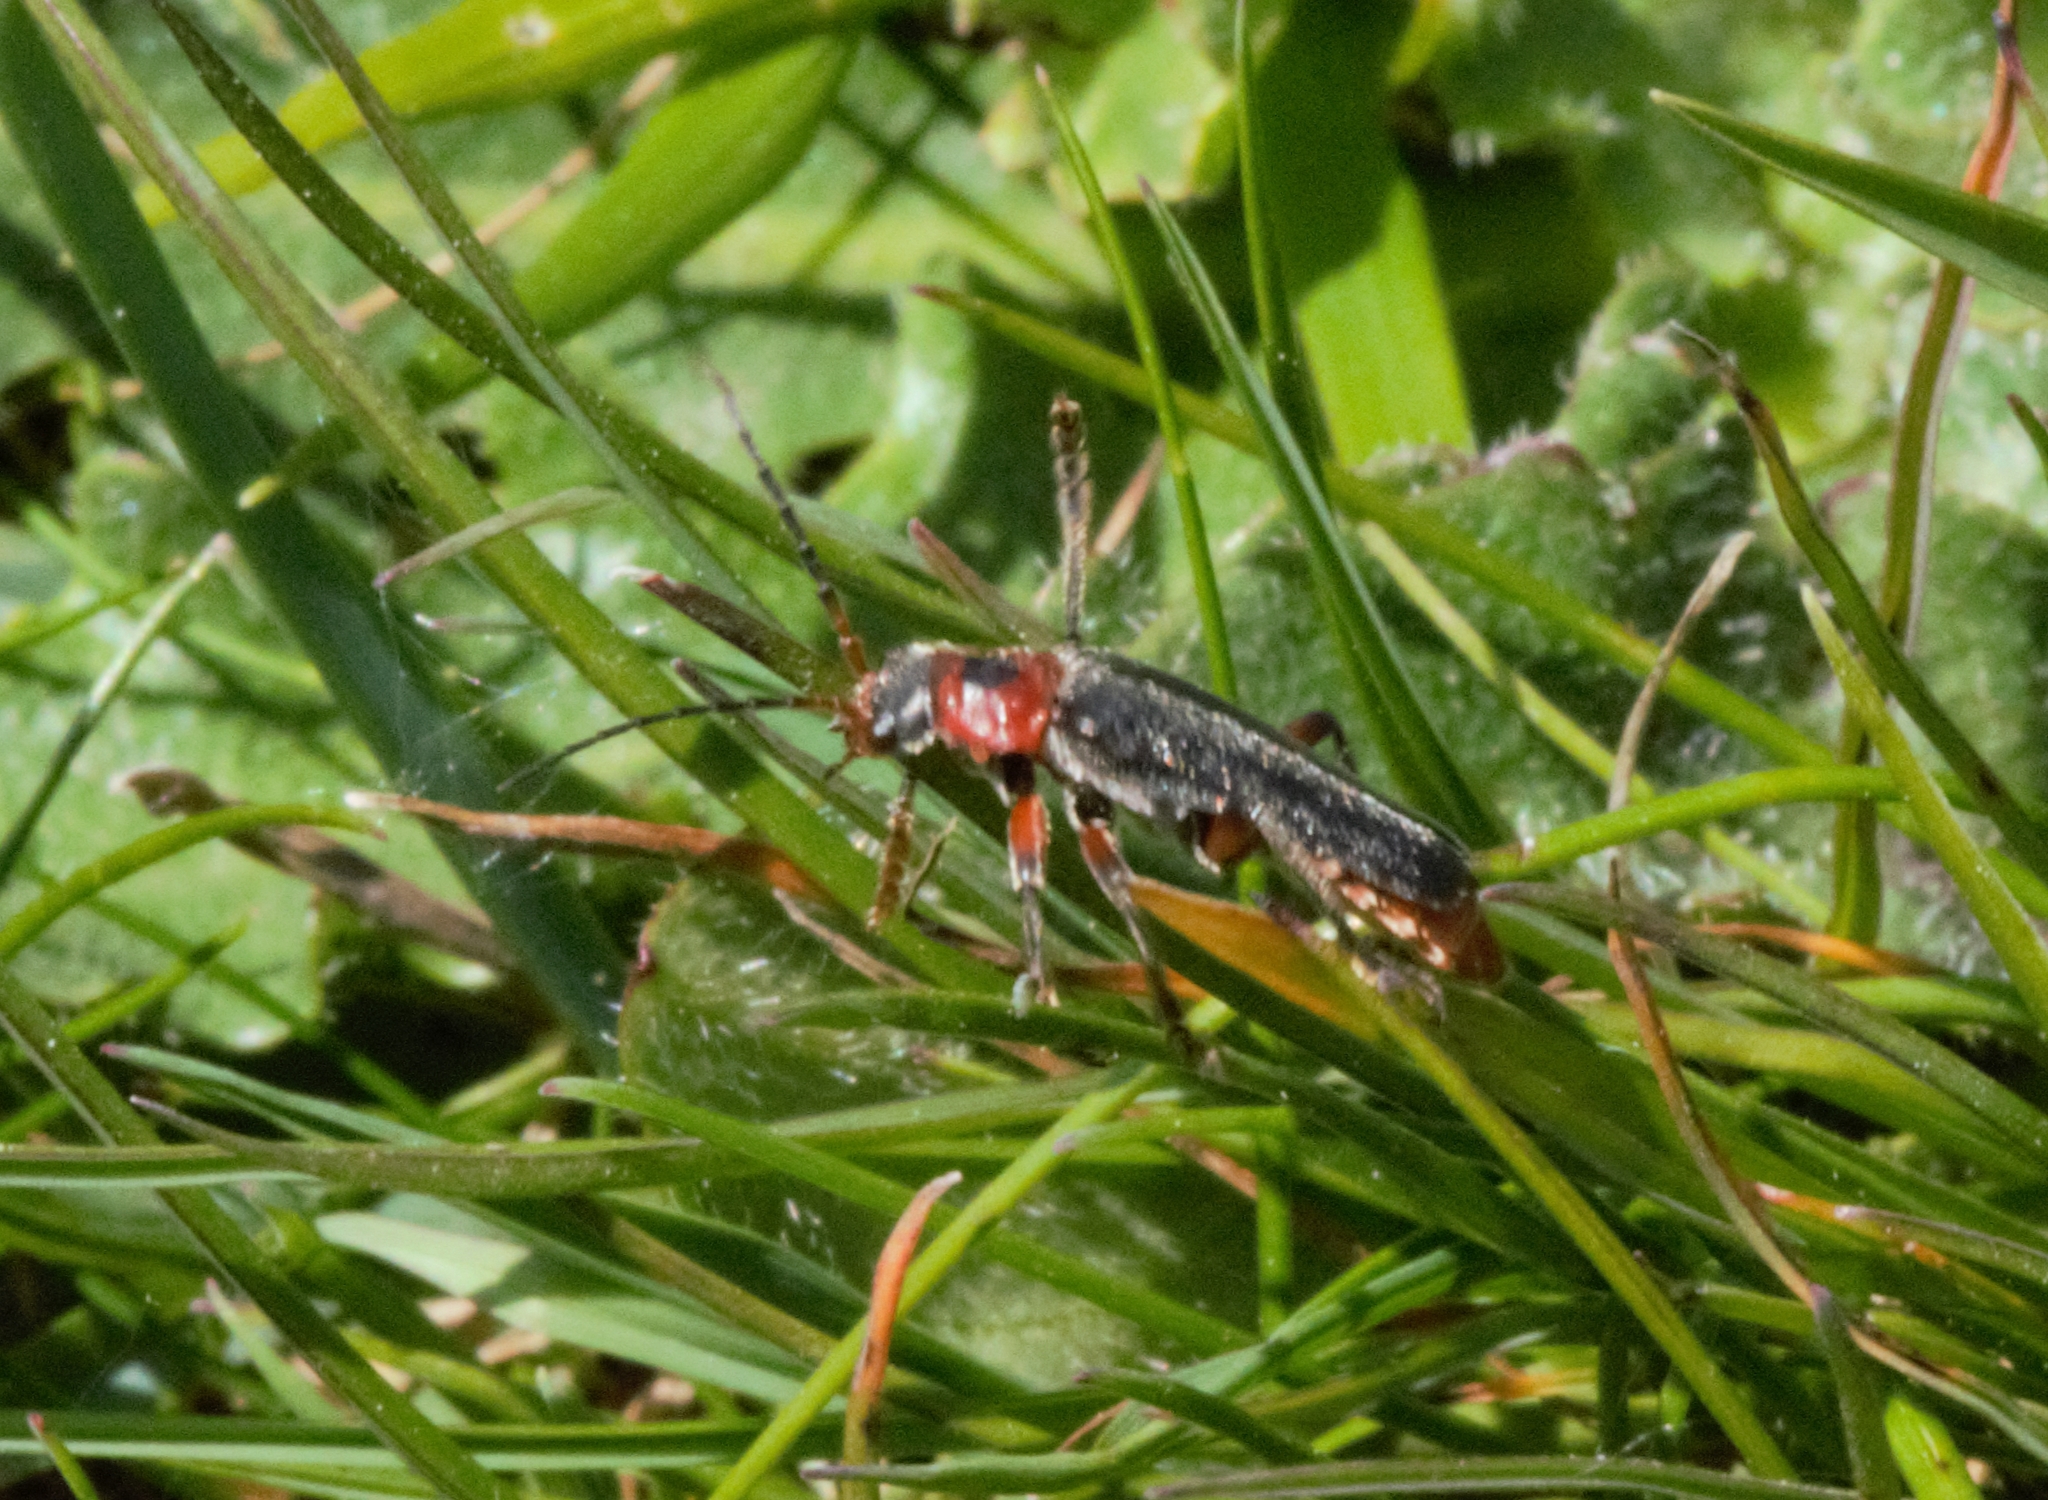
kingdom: Animalia
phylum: Arthropoda
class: Insecta
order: Coleoptera
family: Cantharidae
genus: Cantharis
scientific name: Cantharis rustica
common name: Soldier beetle
